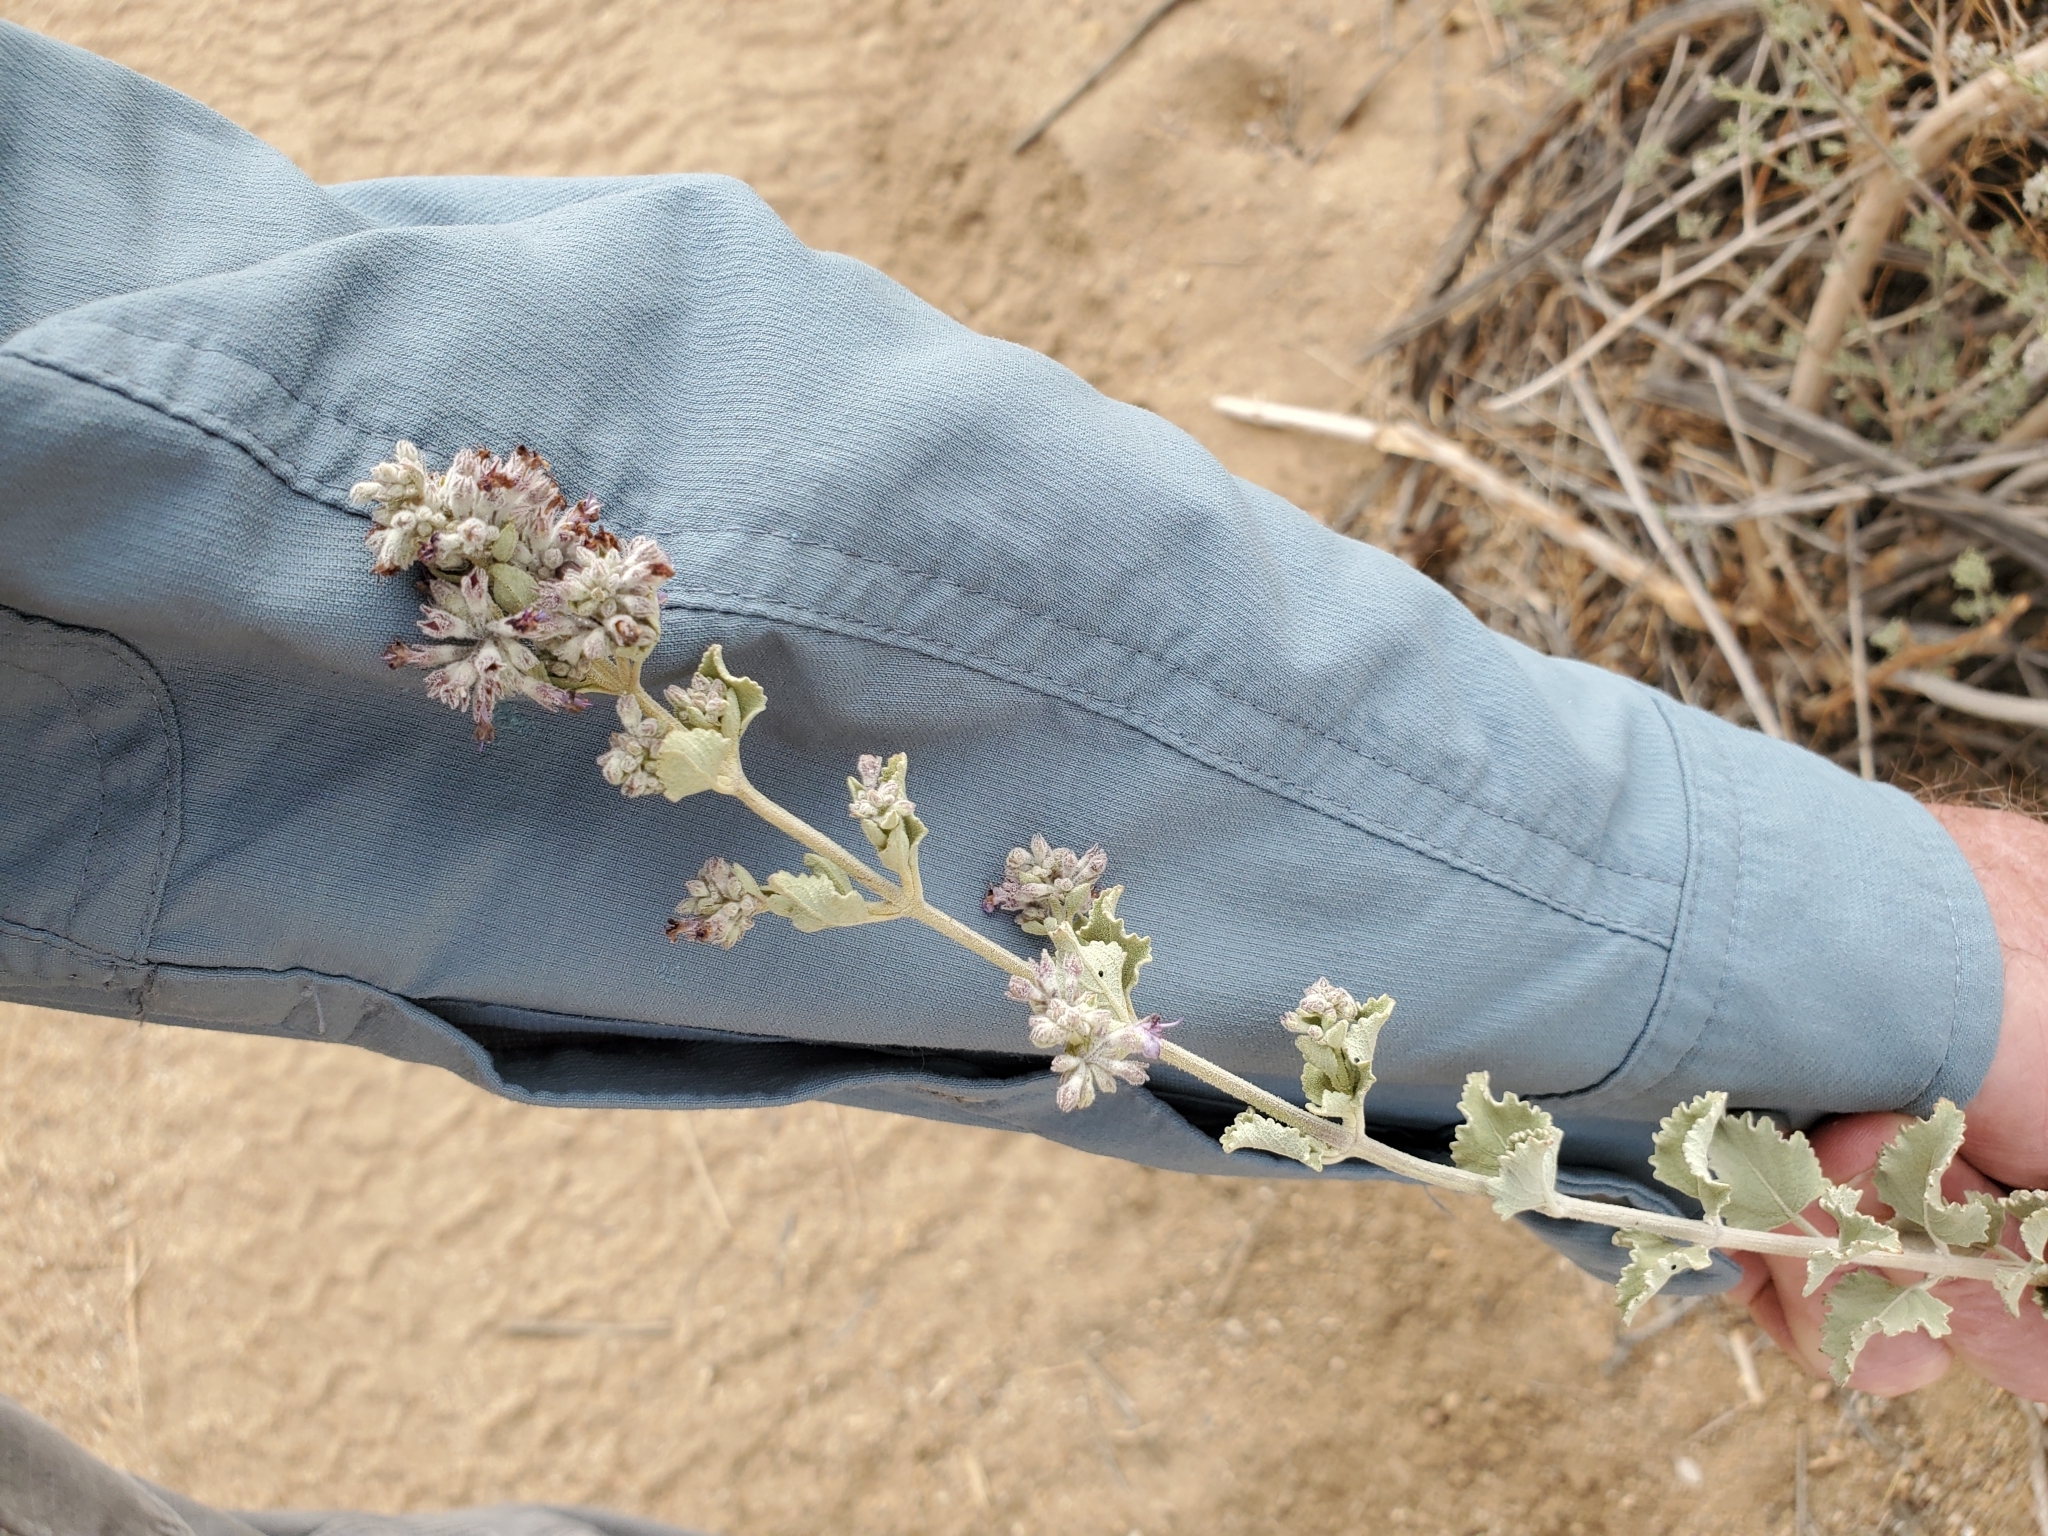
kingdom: Plantae
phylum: Tracheophyta
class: Magnoliopsida
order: Lamiales
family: Lamiaceae
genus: Condea
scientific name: Condea emoryi
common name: Chia
